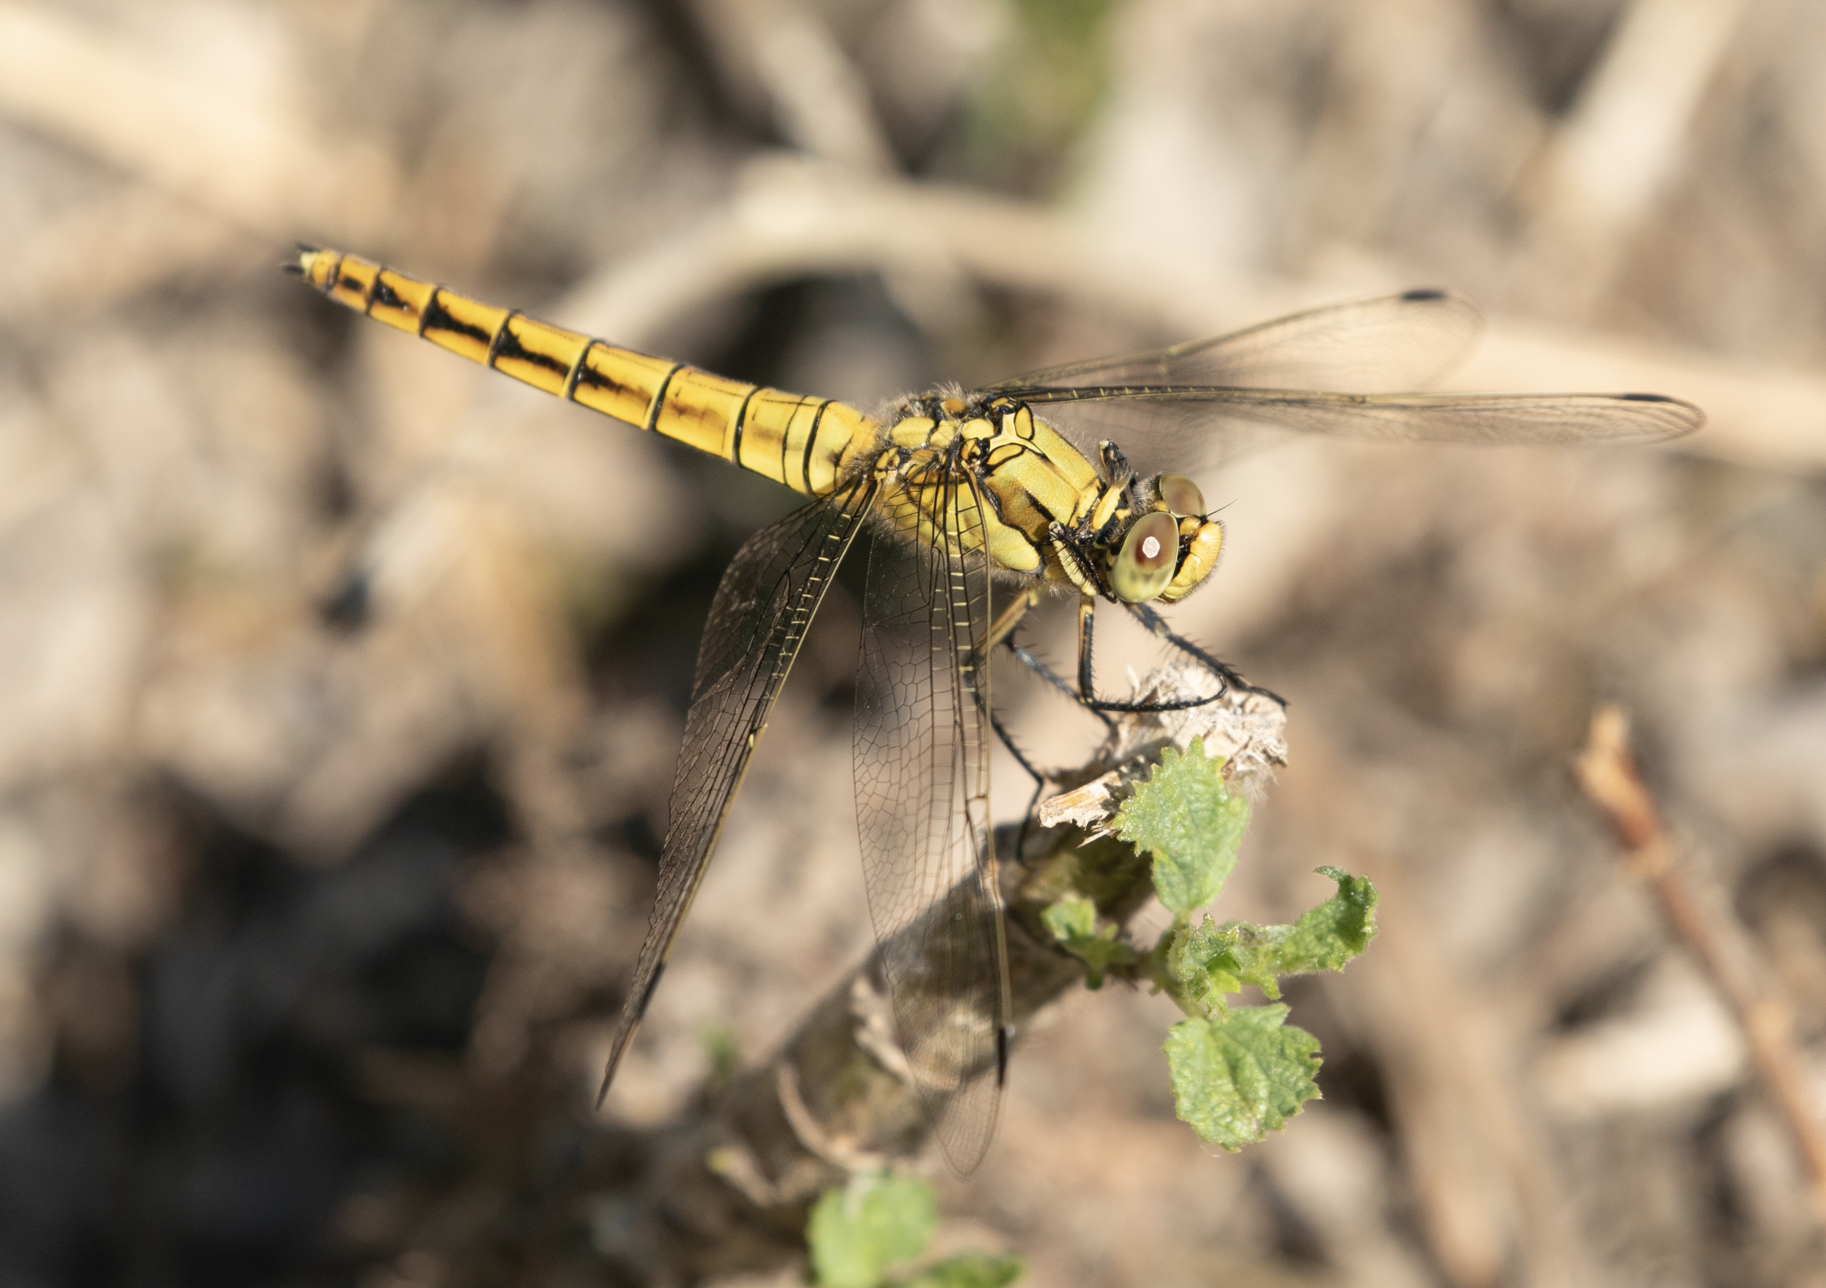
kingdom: Animalia
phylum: Arthropoda
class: Insecta
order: Odonata
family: Libellulidae
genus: Orthetrum
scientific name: Orthetrum cancellatum
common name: Black-tailed skimmer
